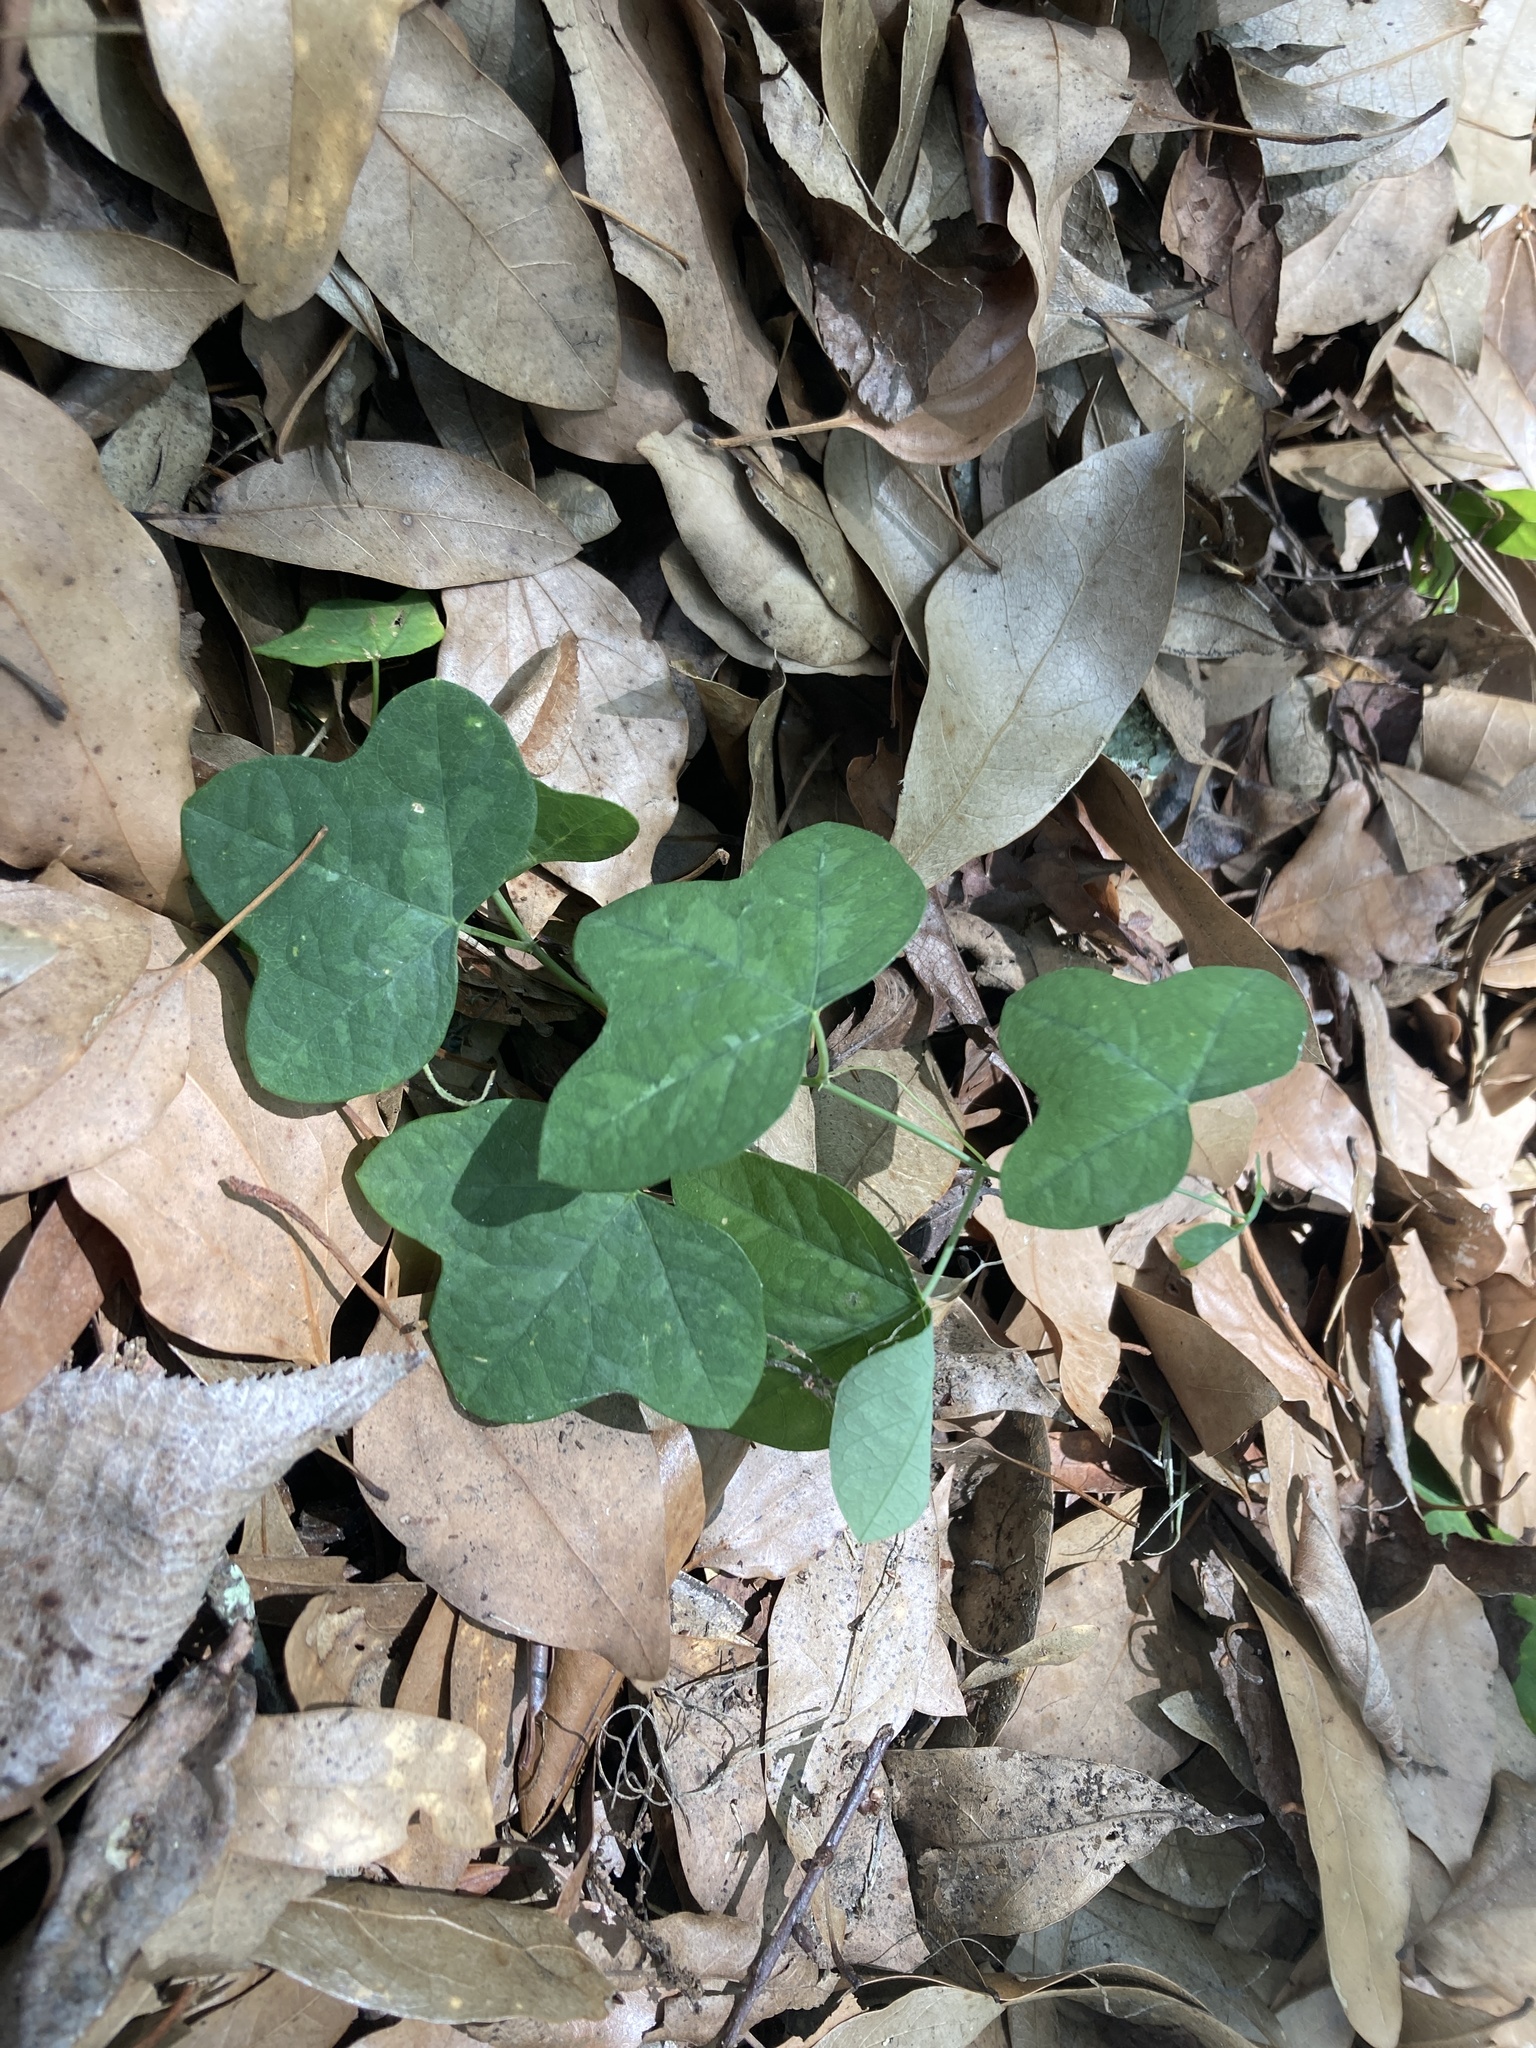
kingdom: Plantae
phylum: Tracheophyta
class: Magnoliopsida
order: Malpighiales
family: Passifloraceae
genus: Passiflora
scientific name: Passiflora lutea
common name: Yellow passionflower
